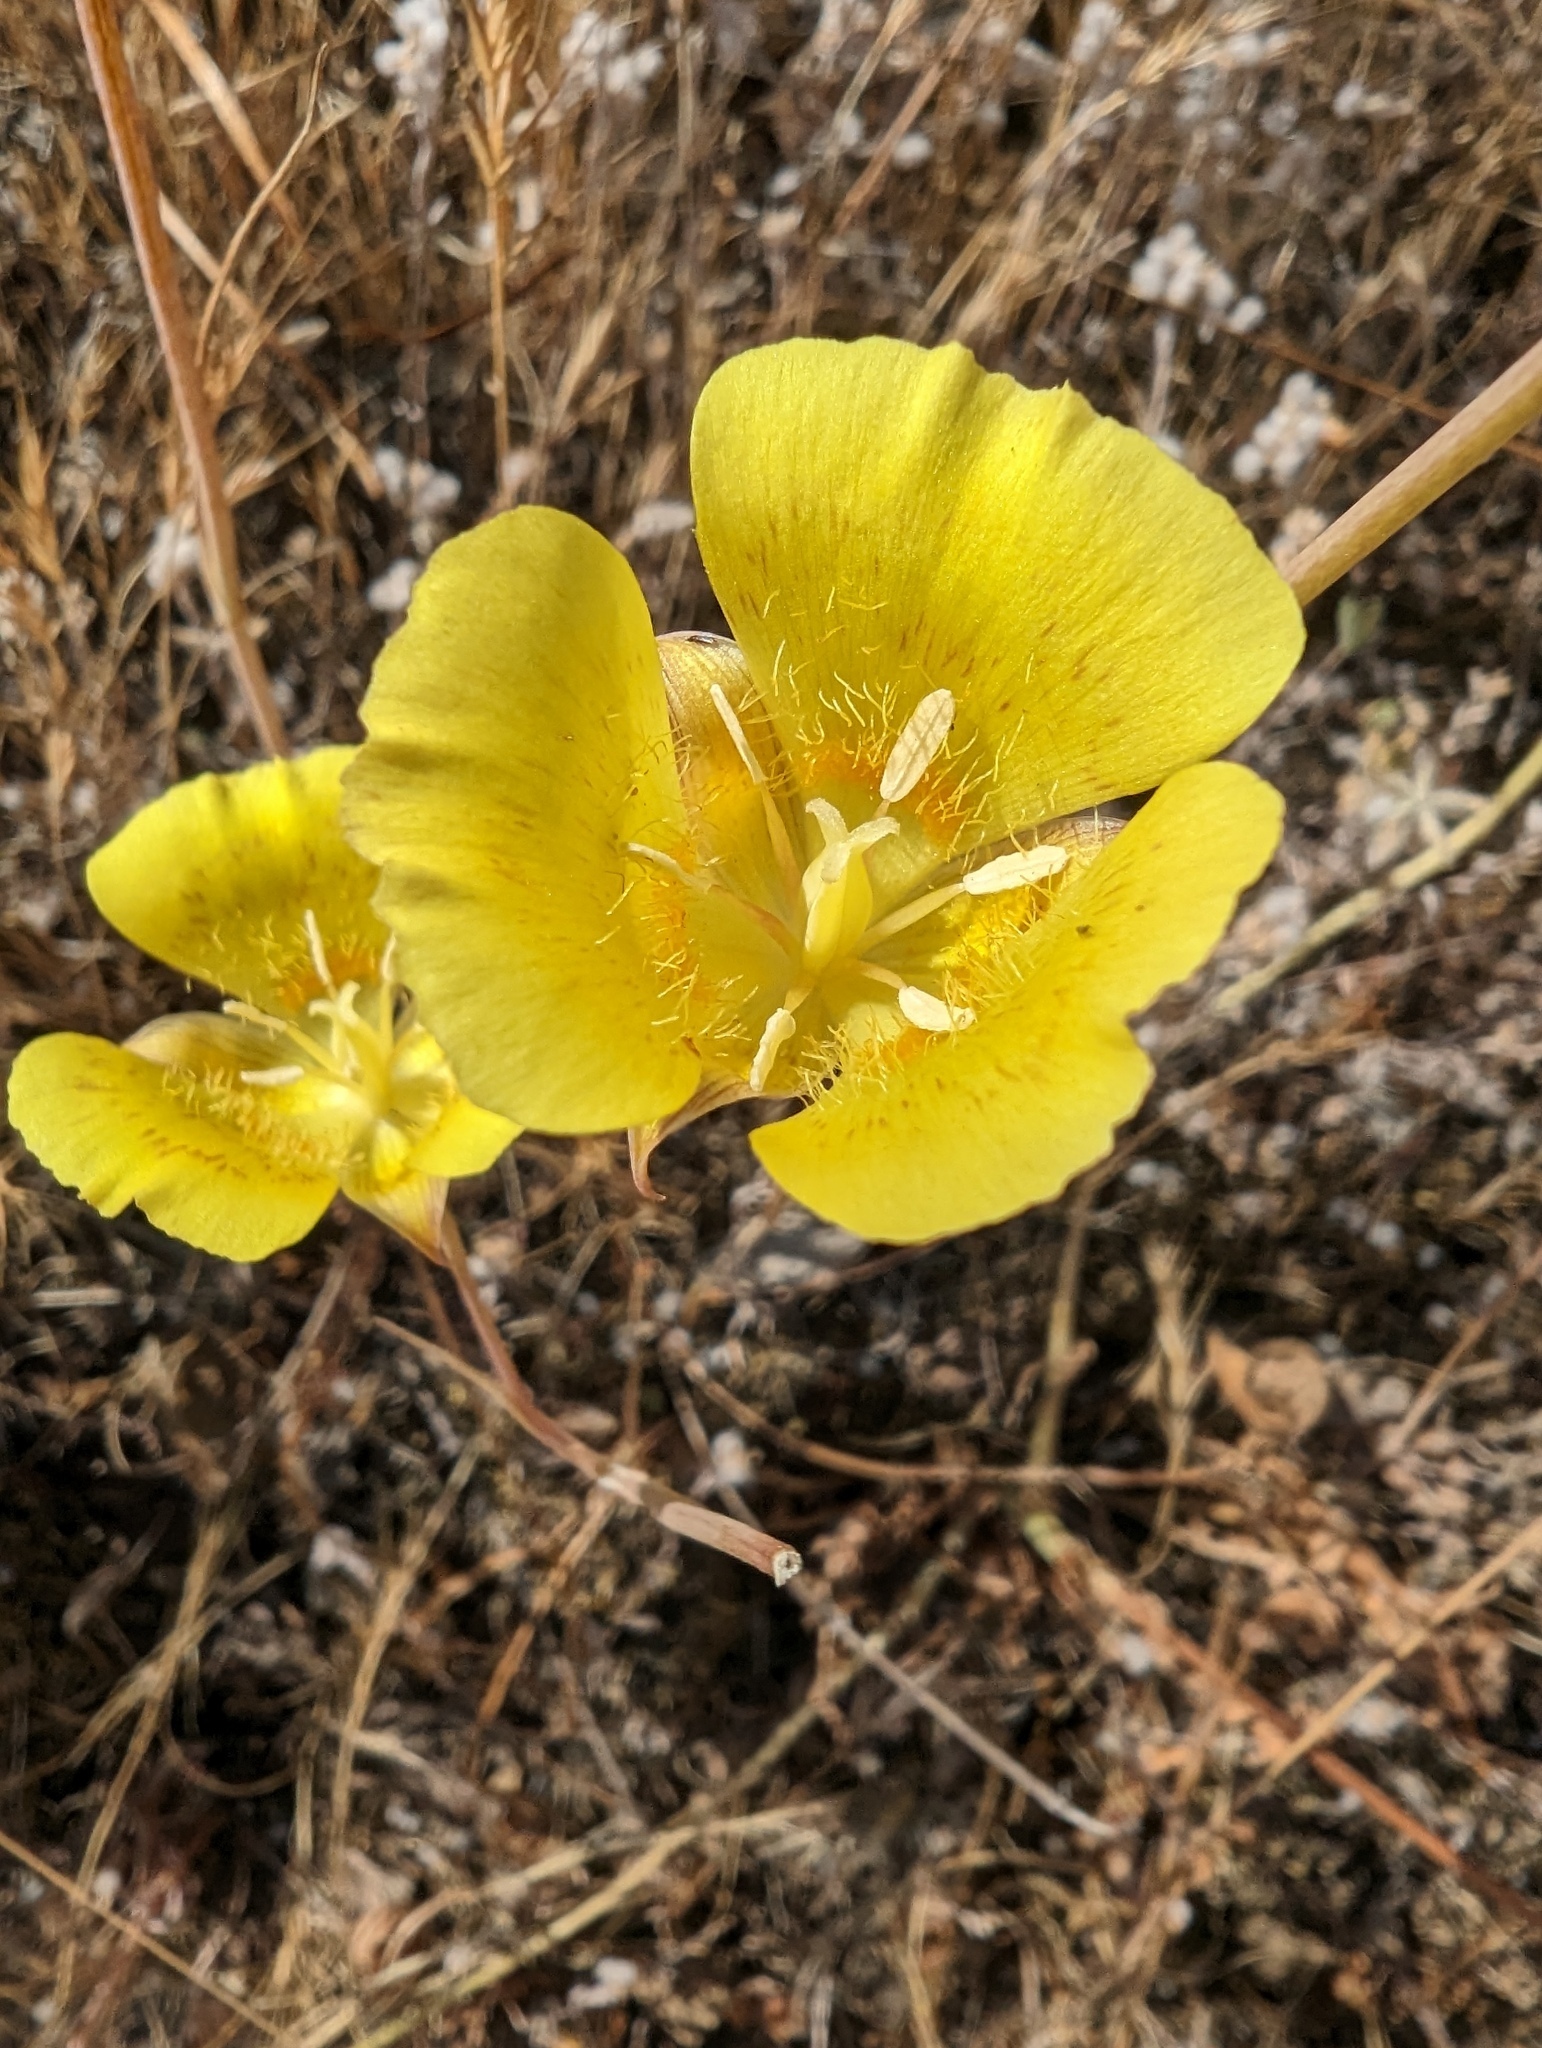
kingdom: Plantae
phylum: Tracheophyta
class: Liliopsida
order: Liliales
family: Liliaceae
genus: Calochortus
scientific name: Calochortus luteus
